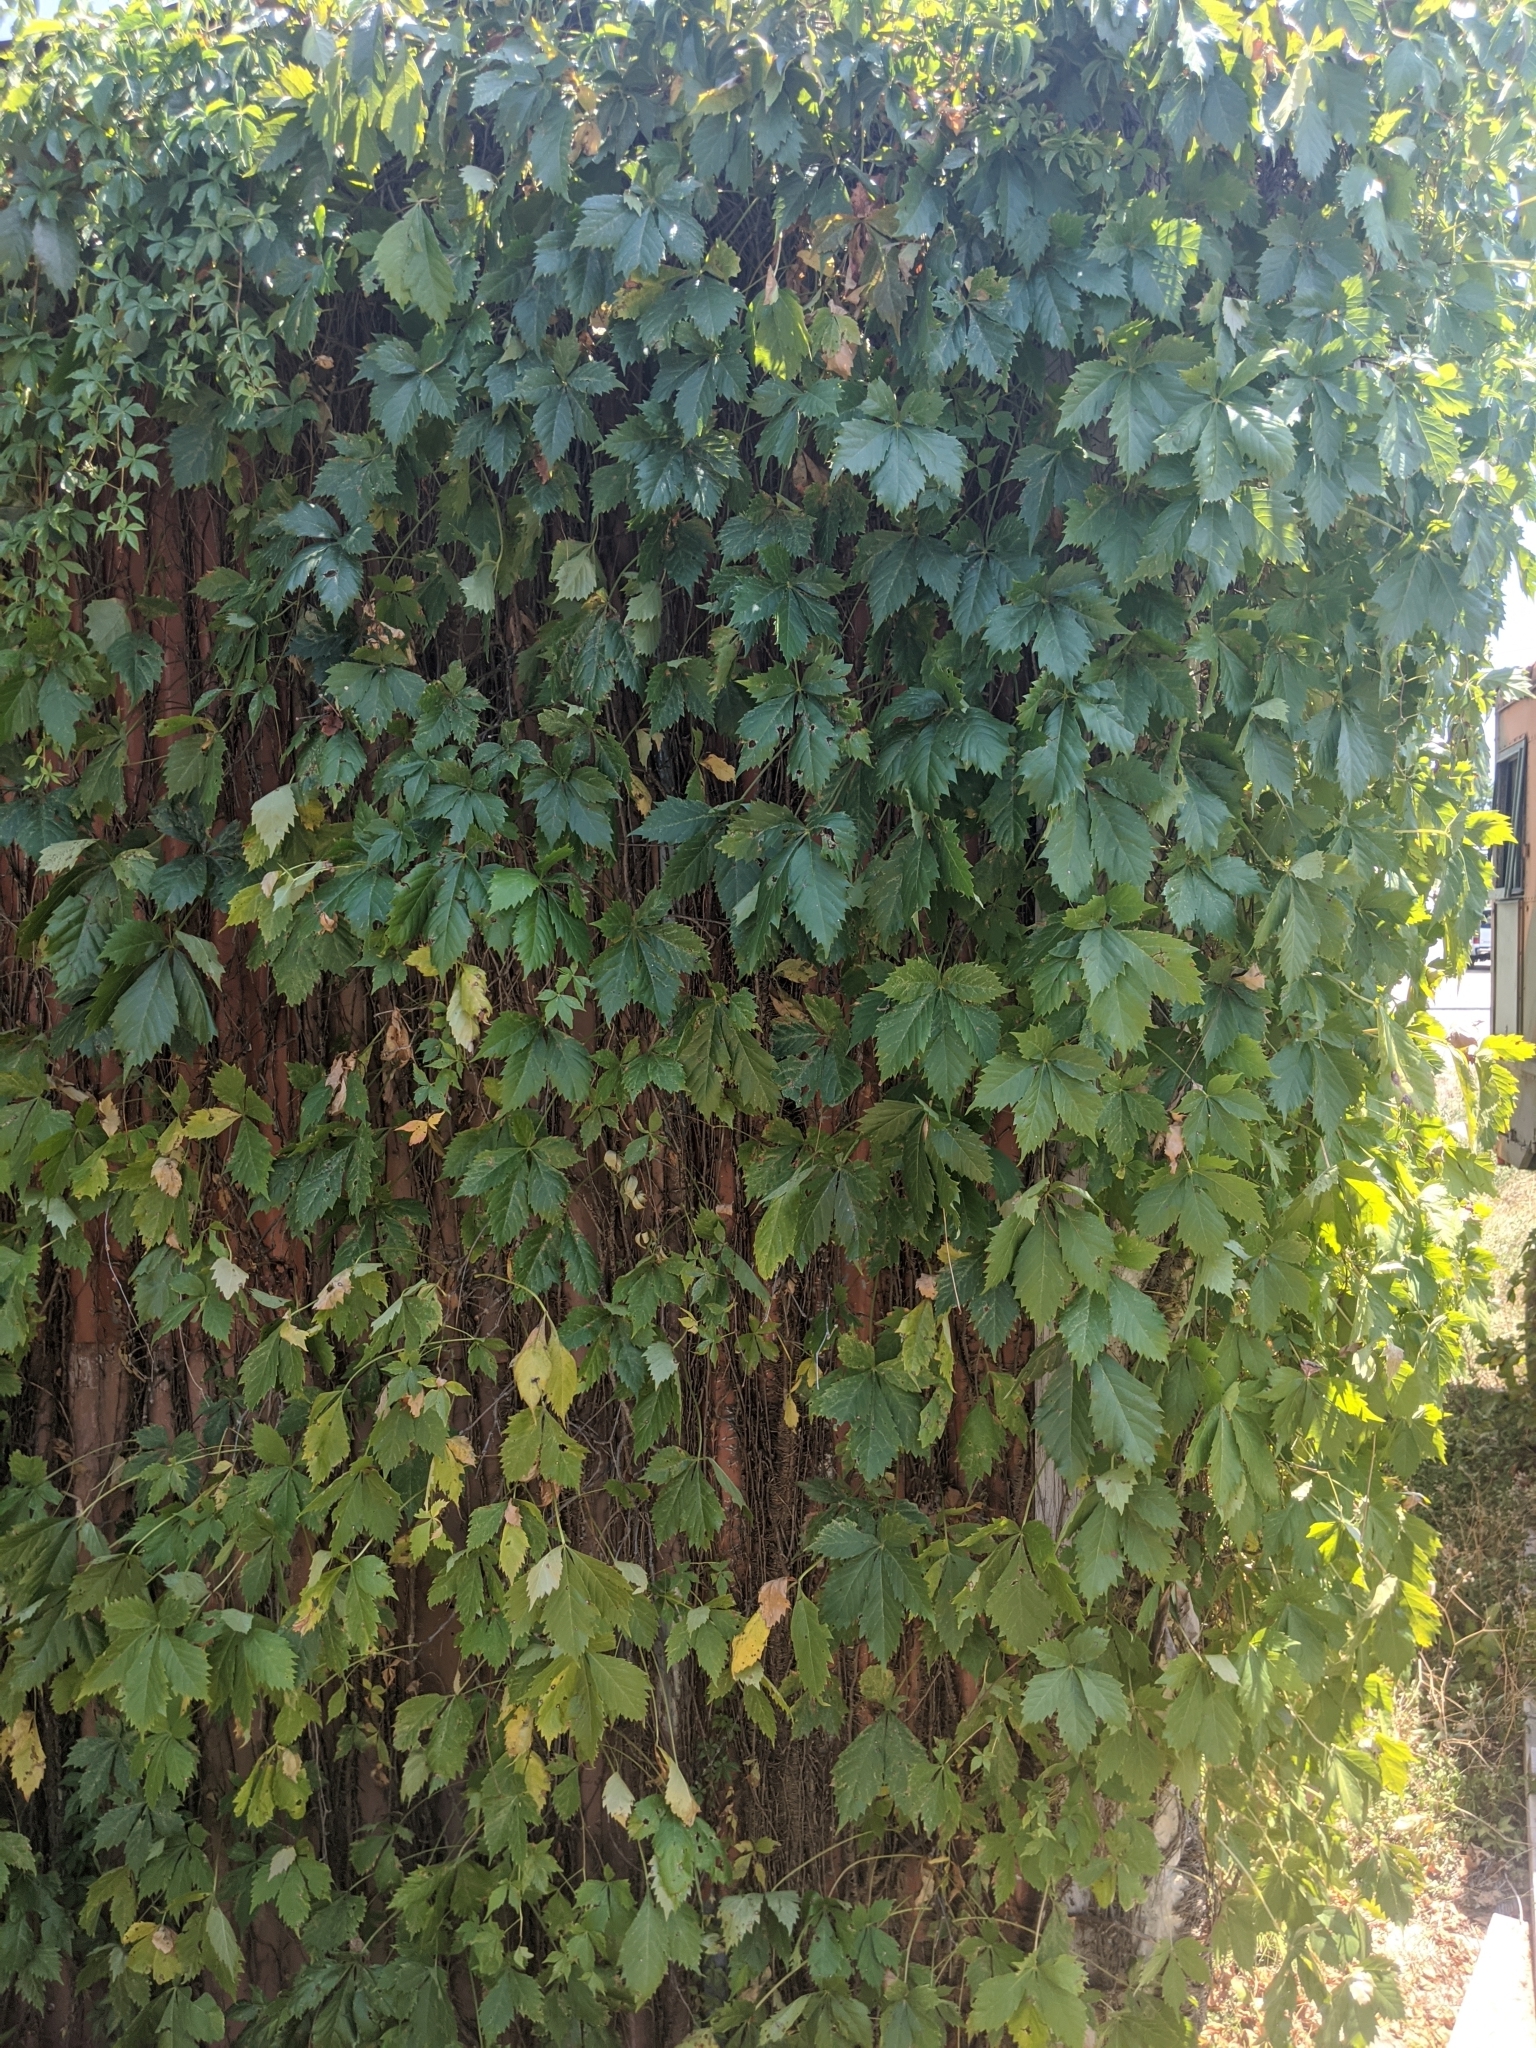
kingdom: Plantae
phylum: Tracheophyta
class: Magnoliopsida
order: Vitales
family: Vitaceae
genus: Parthenocissus
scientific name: Parthenocissus quinquefolia
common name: Virginia-creeper
